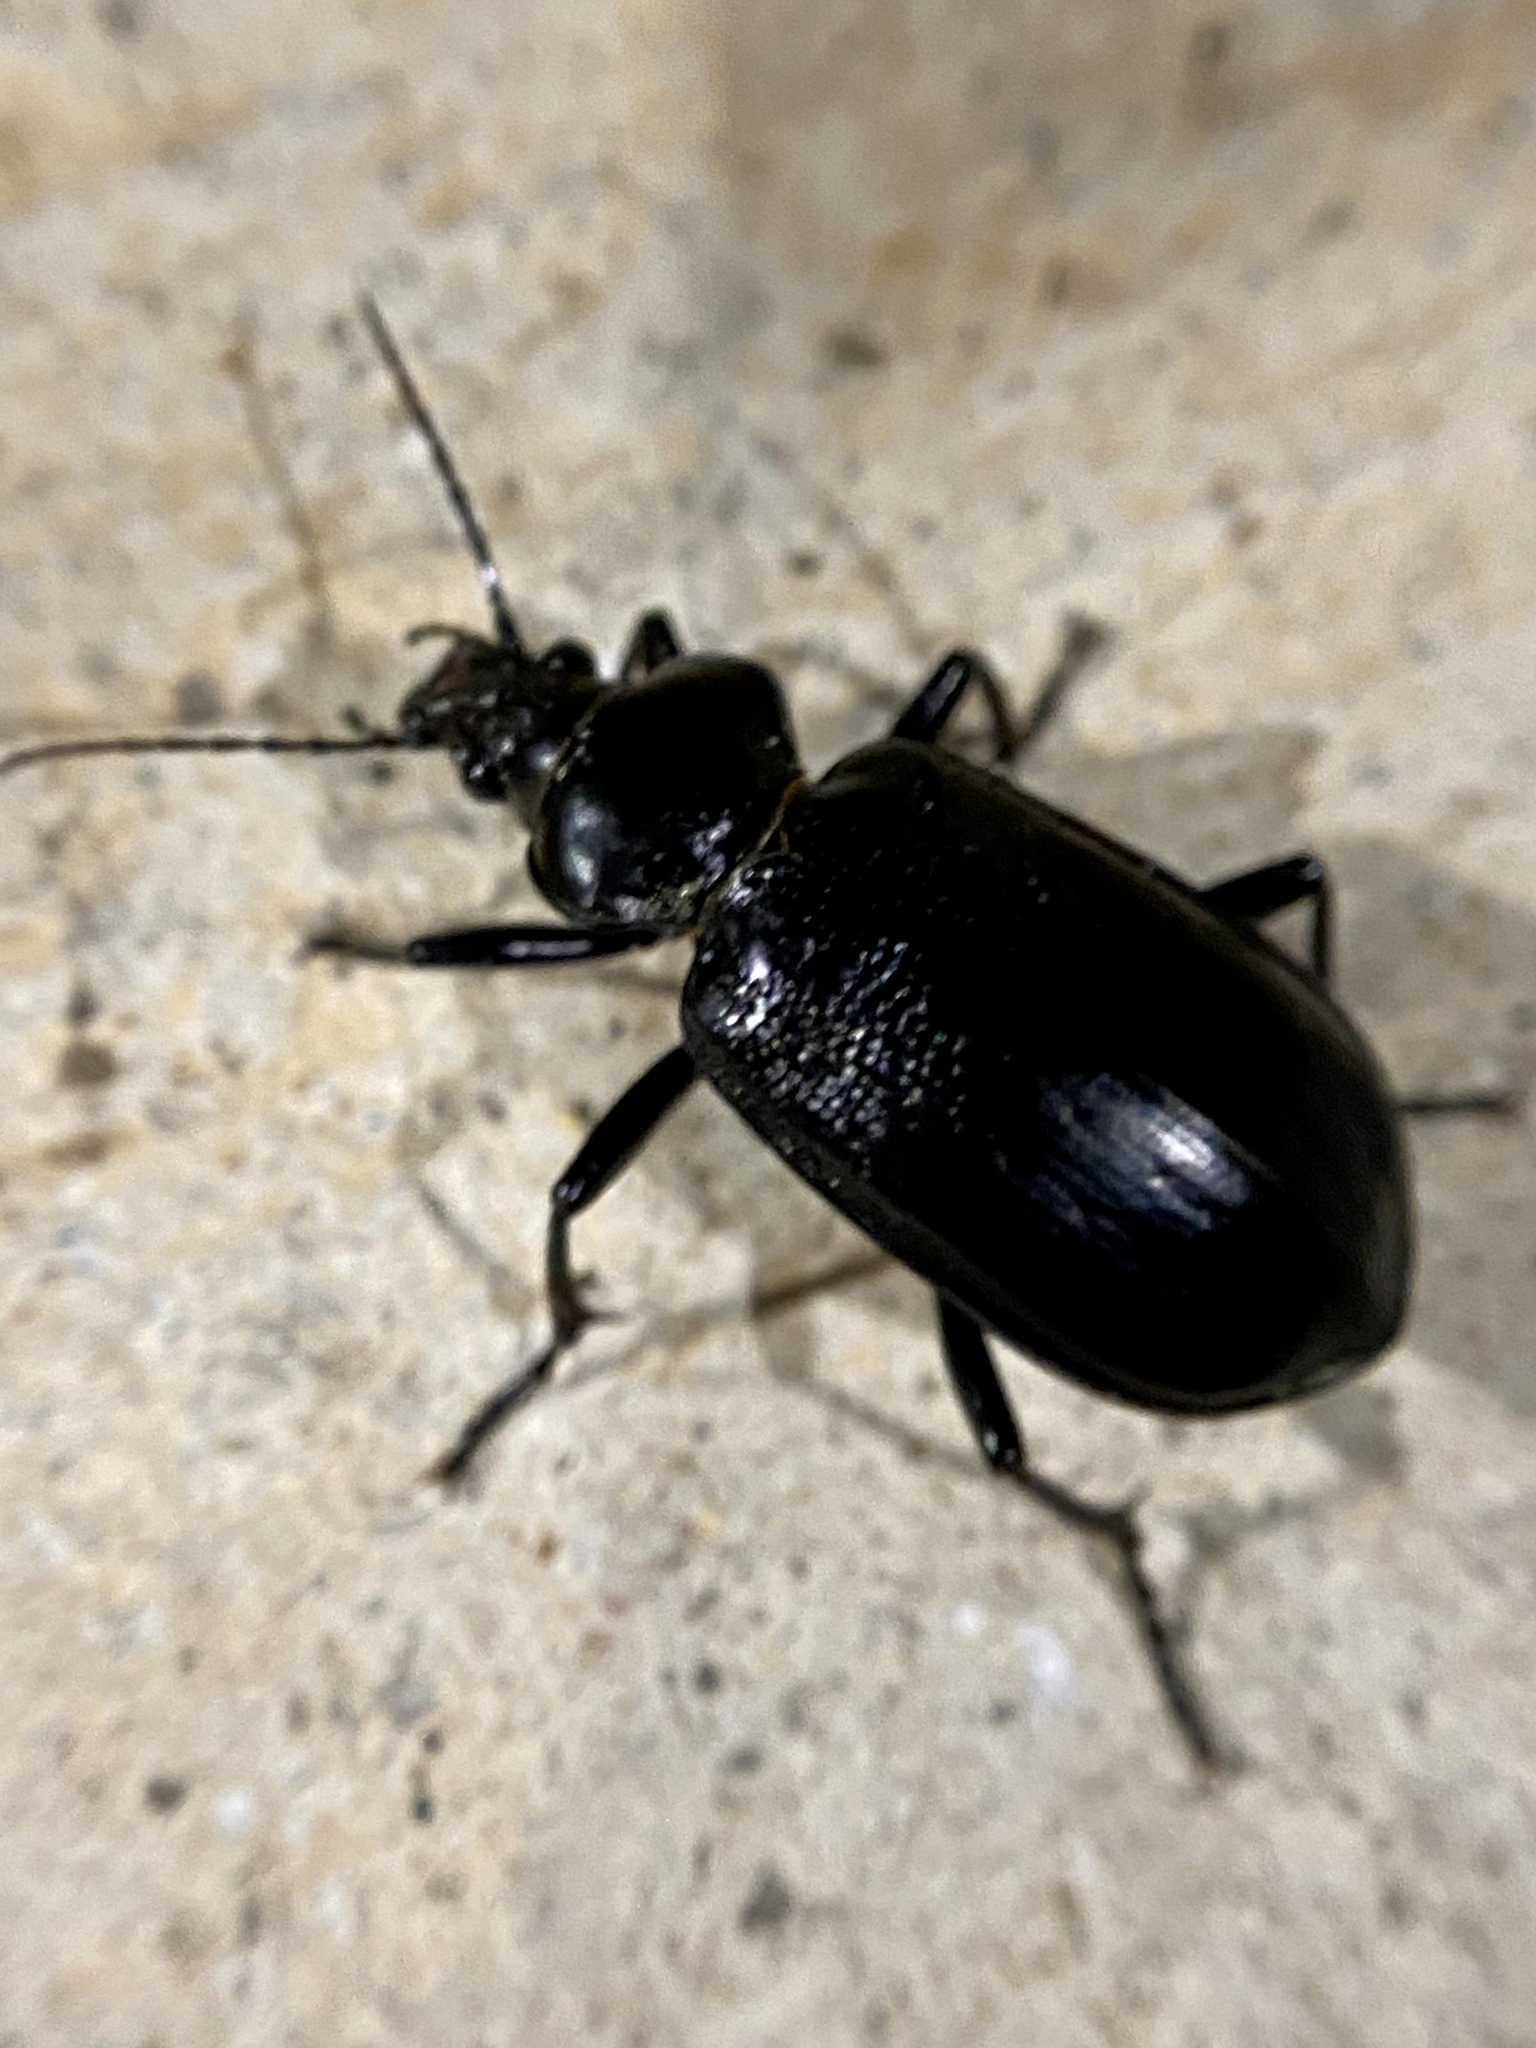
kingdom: Animalia
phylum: Arthropoda
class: Insecta
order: Coleoptera
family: Carabidae
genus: Calosoma
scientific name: Calosoma marginale
